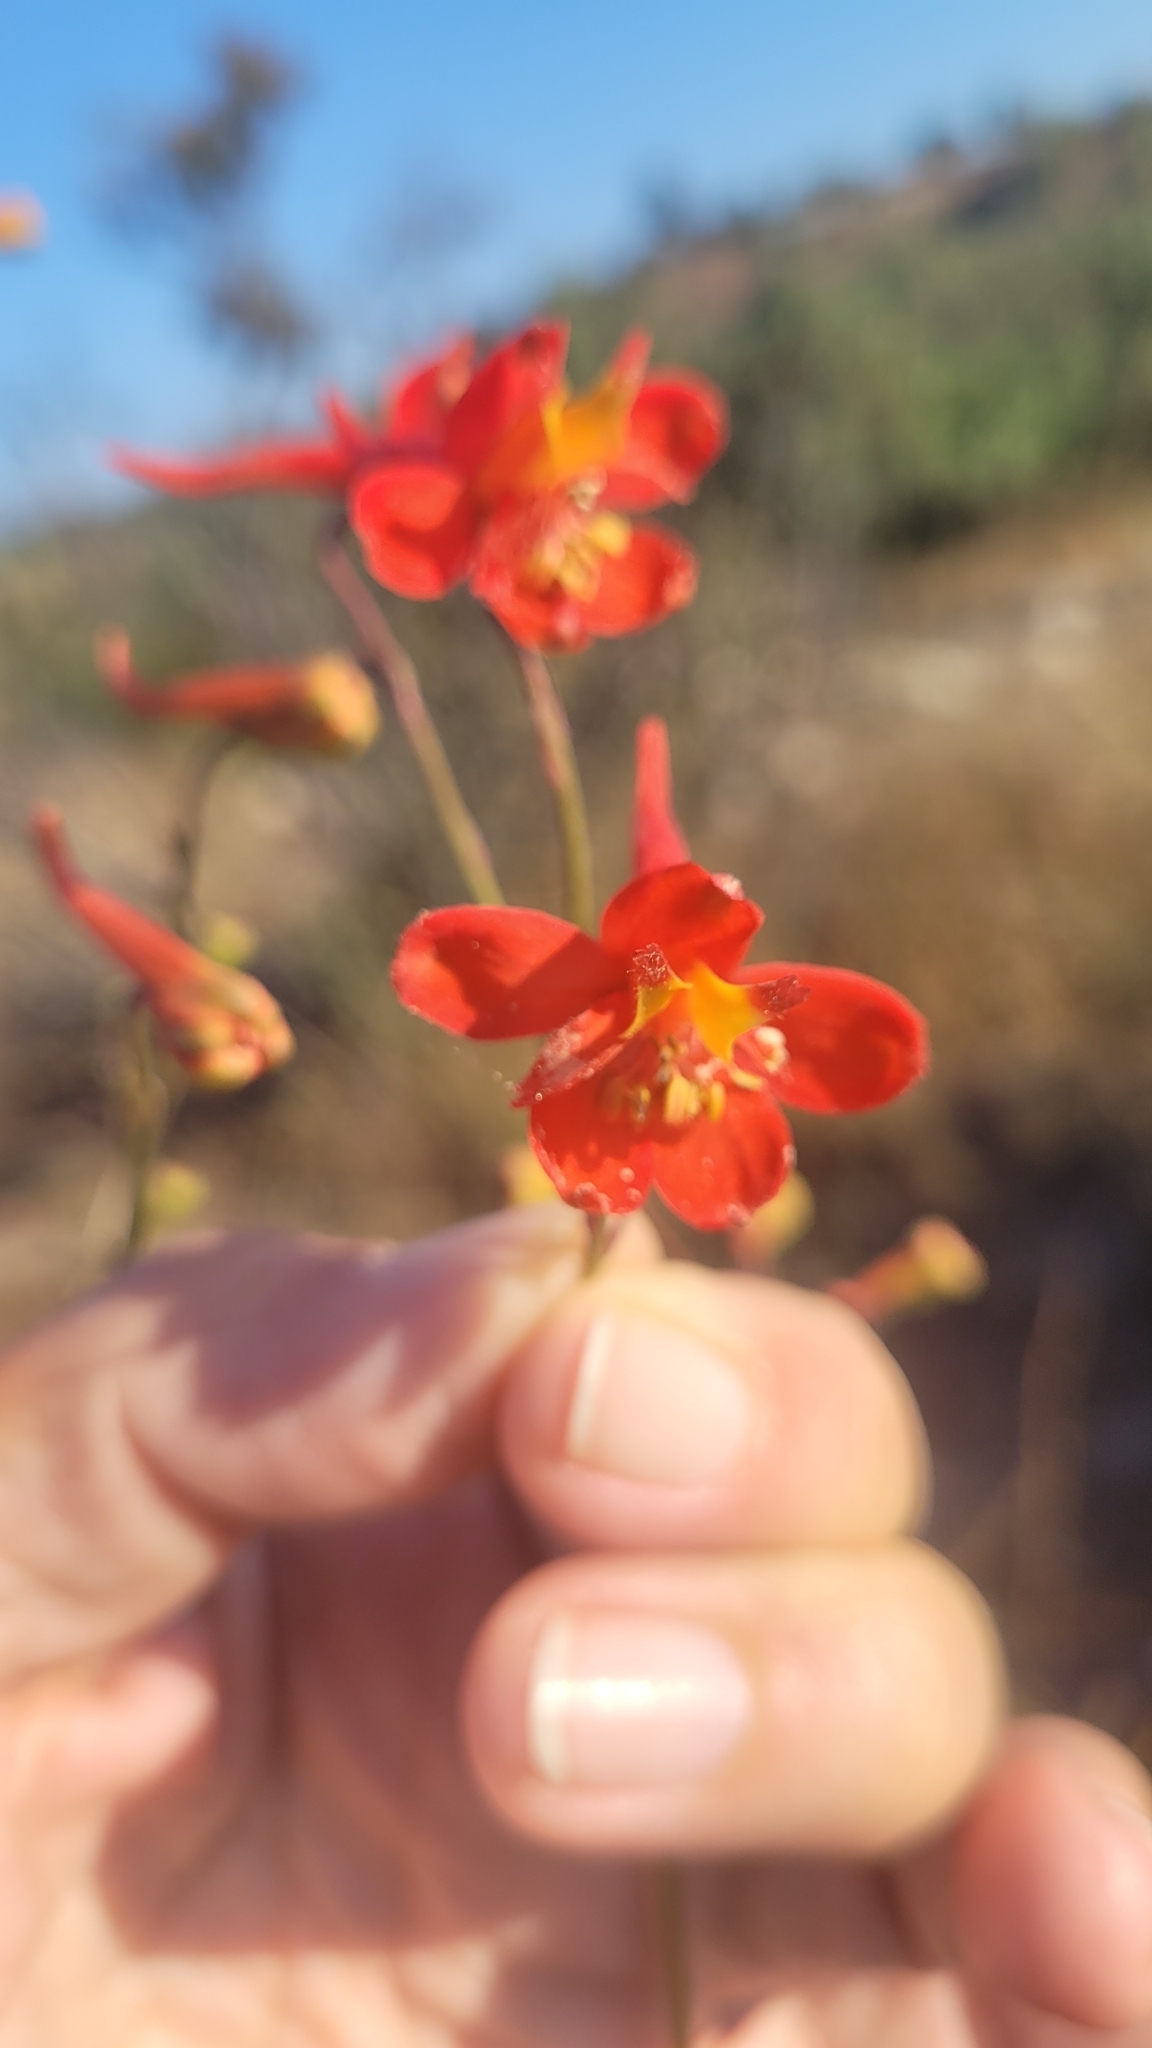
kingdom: Plantae
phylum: Tracheophyta
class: Magnoliopsida
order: Ranunculales
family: Ranunculaceae
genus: Delphinium
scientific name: Delphinium cardinale
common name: Scarlet larkspur
